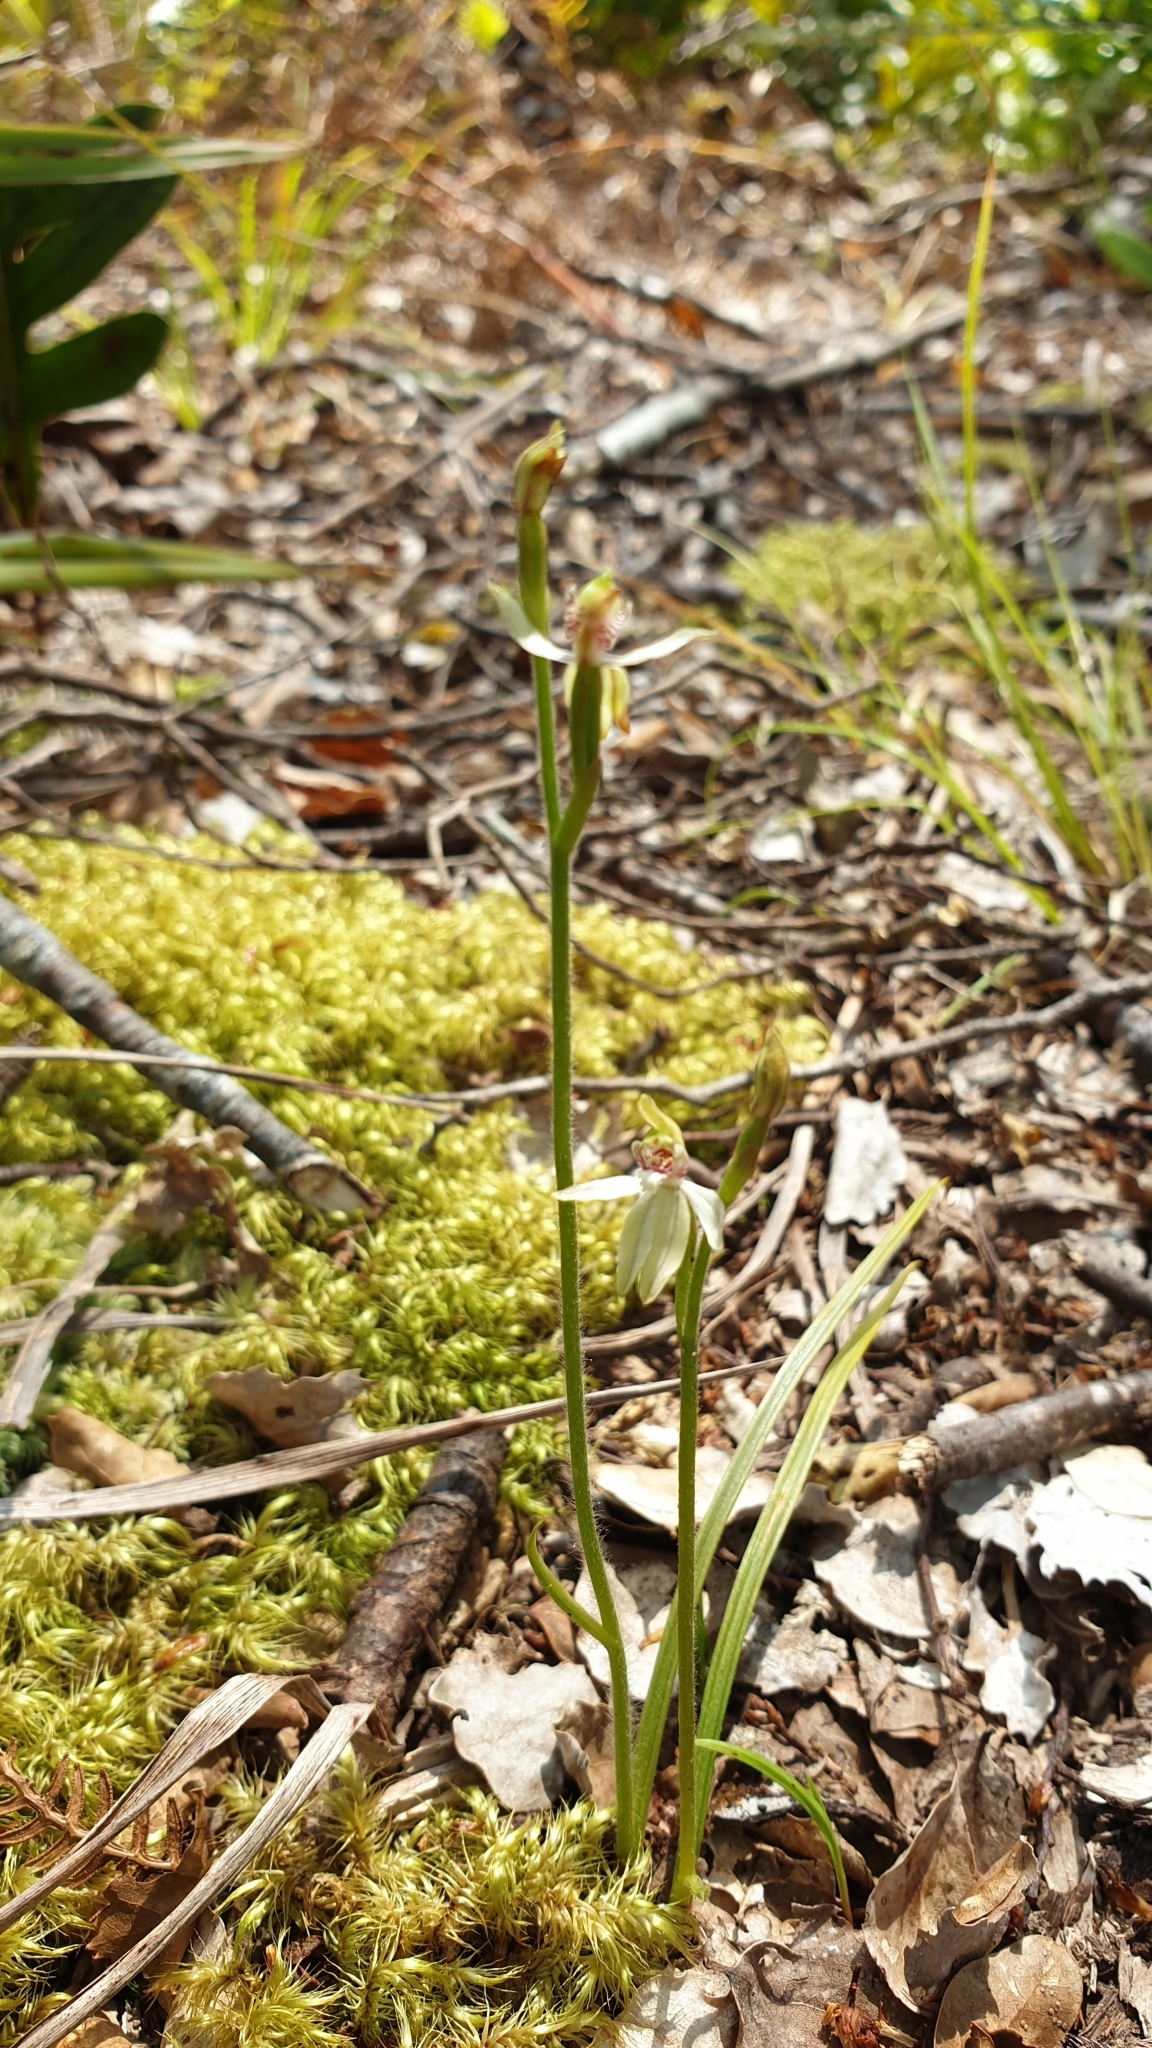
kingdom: Plantae
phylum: Tracheophyta
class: Liliopsida
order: Asparagales
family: Orchidaceae
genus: Caladenia
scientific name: Caladenia chlorostyla
